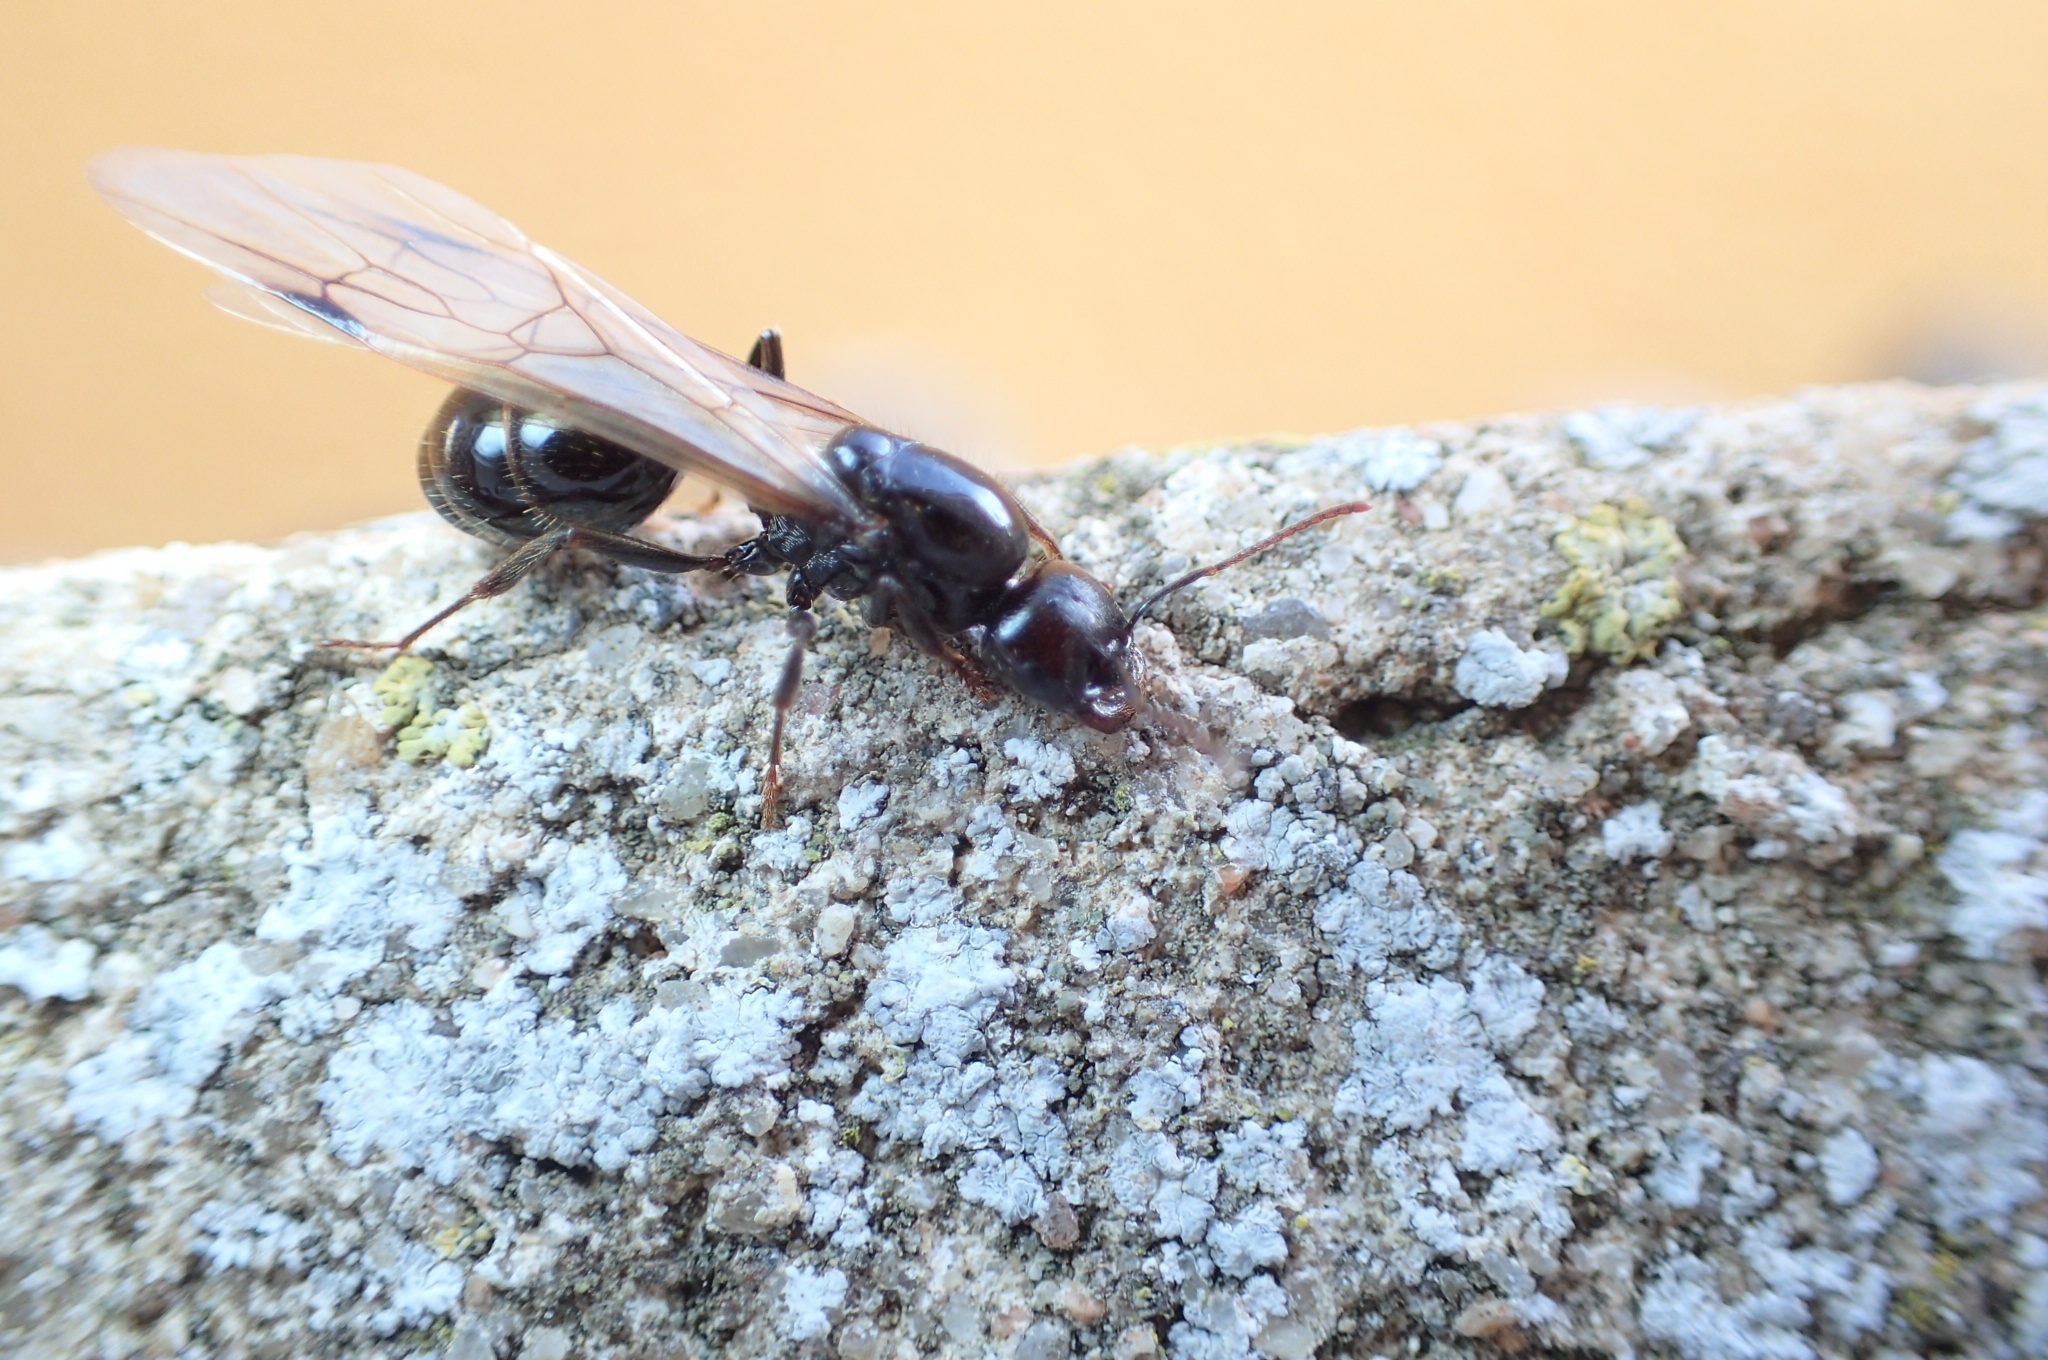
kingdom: Animalia
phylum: Arthropoda
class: Insecta
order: Hymenoptera
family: Formicidae
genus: Messor
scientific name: Messor barbarus
